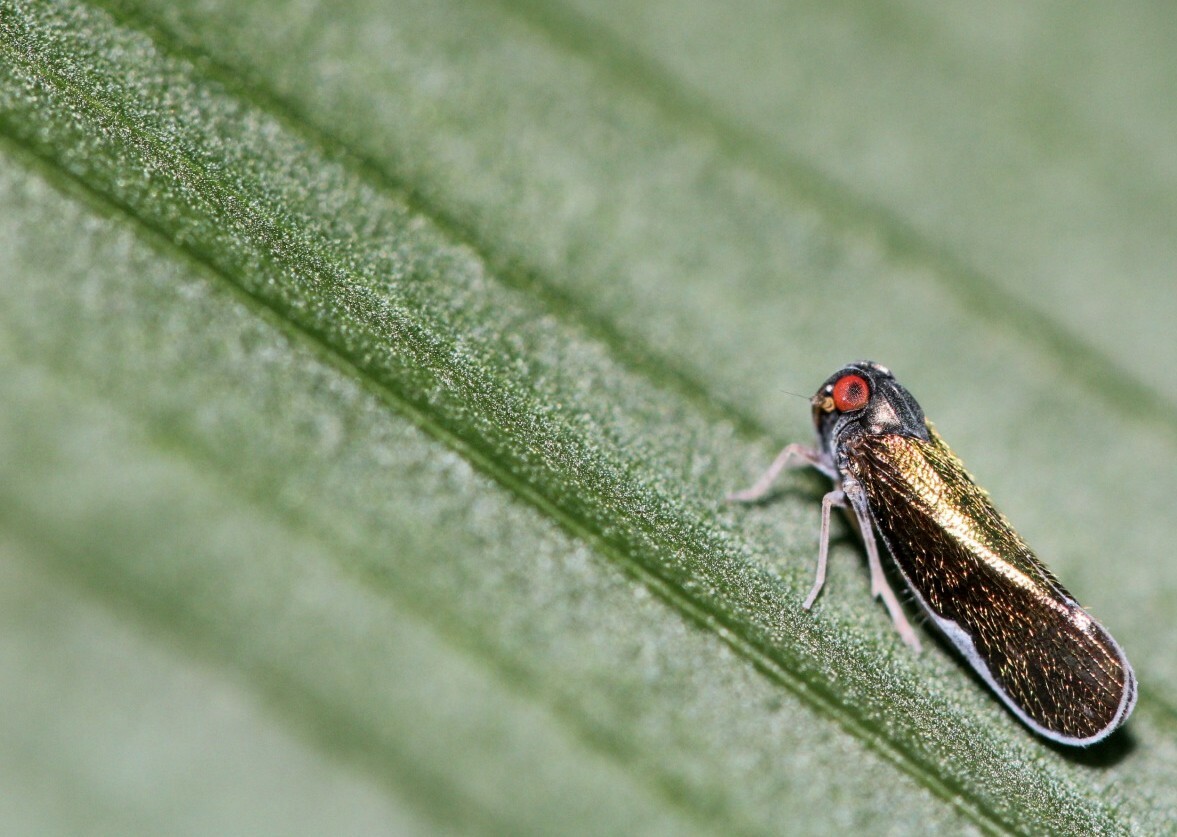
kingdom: Animalia
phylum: Arthropoda
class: Insecta
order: Hemiptera
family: Cixiidae
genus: Muirolonia
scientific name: Muirolonia metallica
